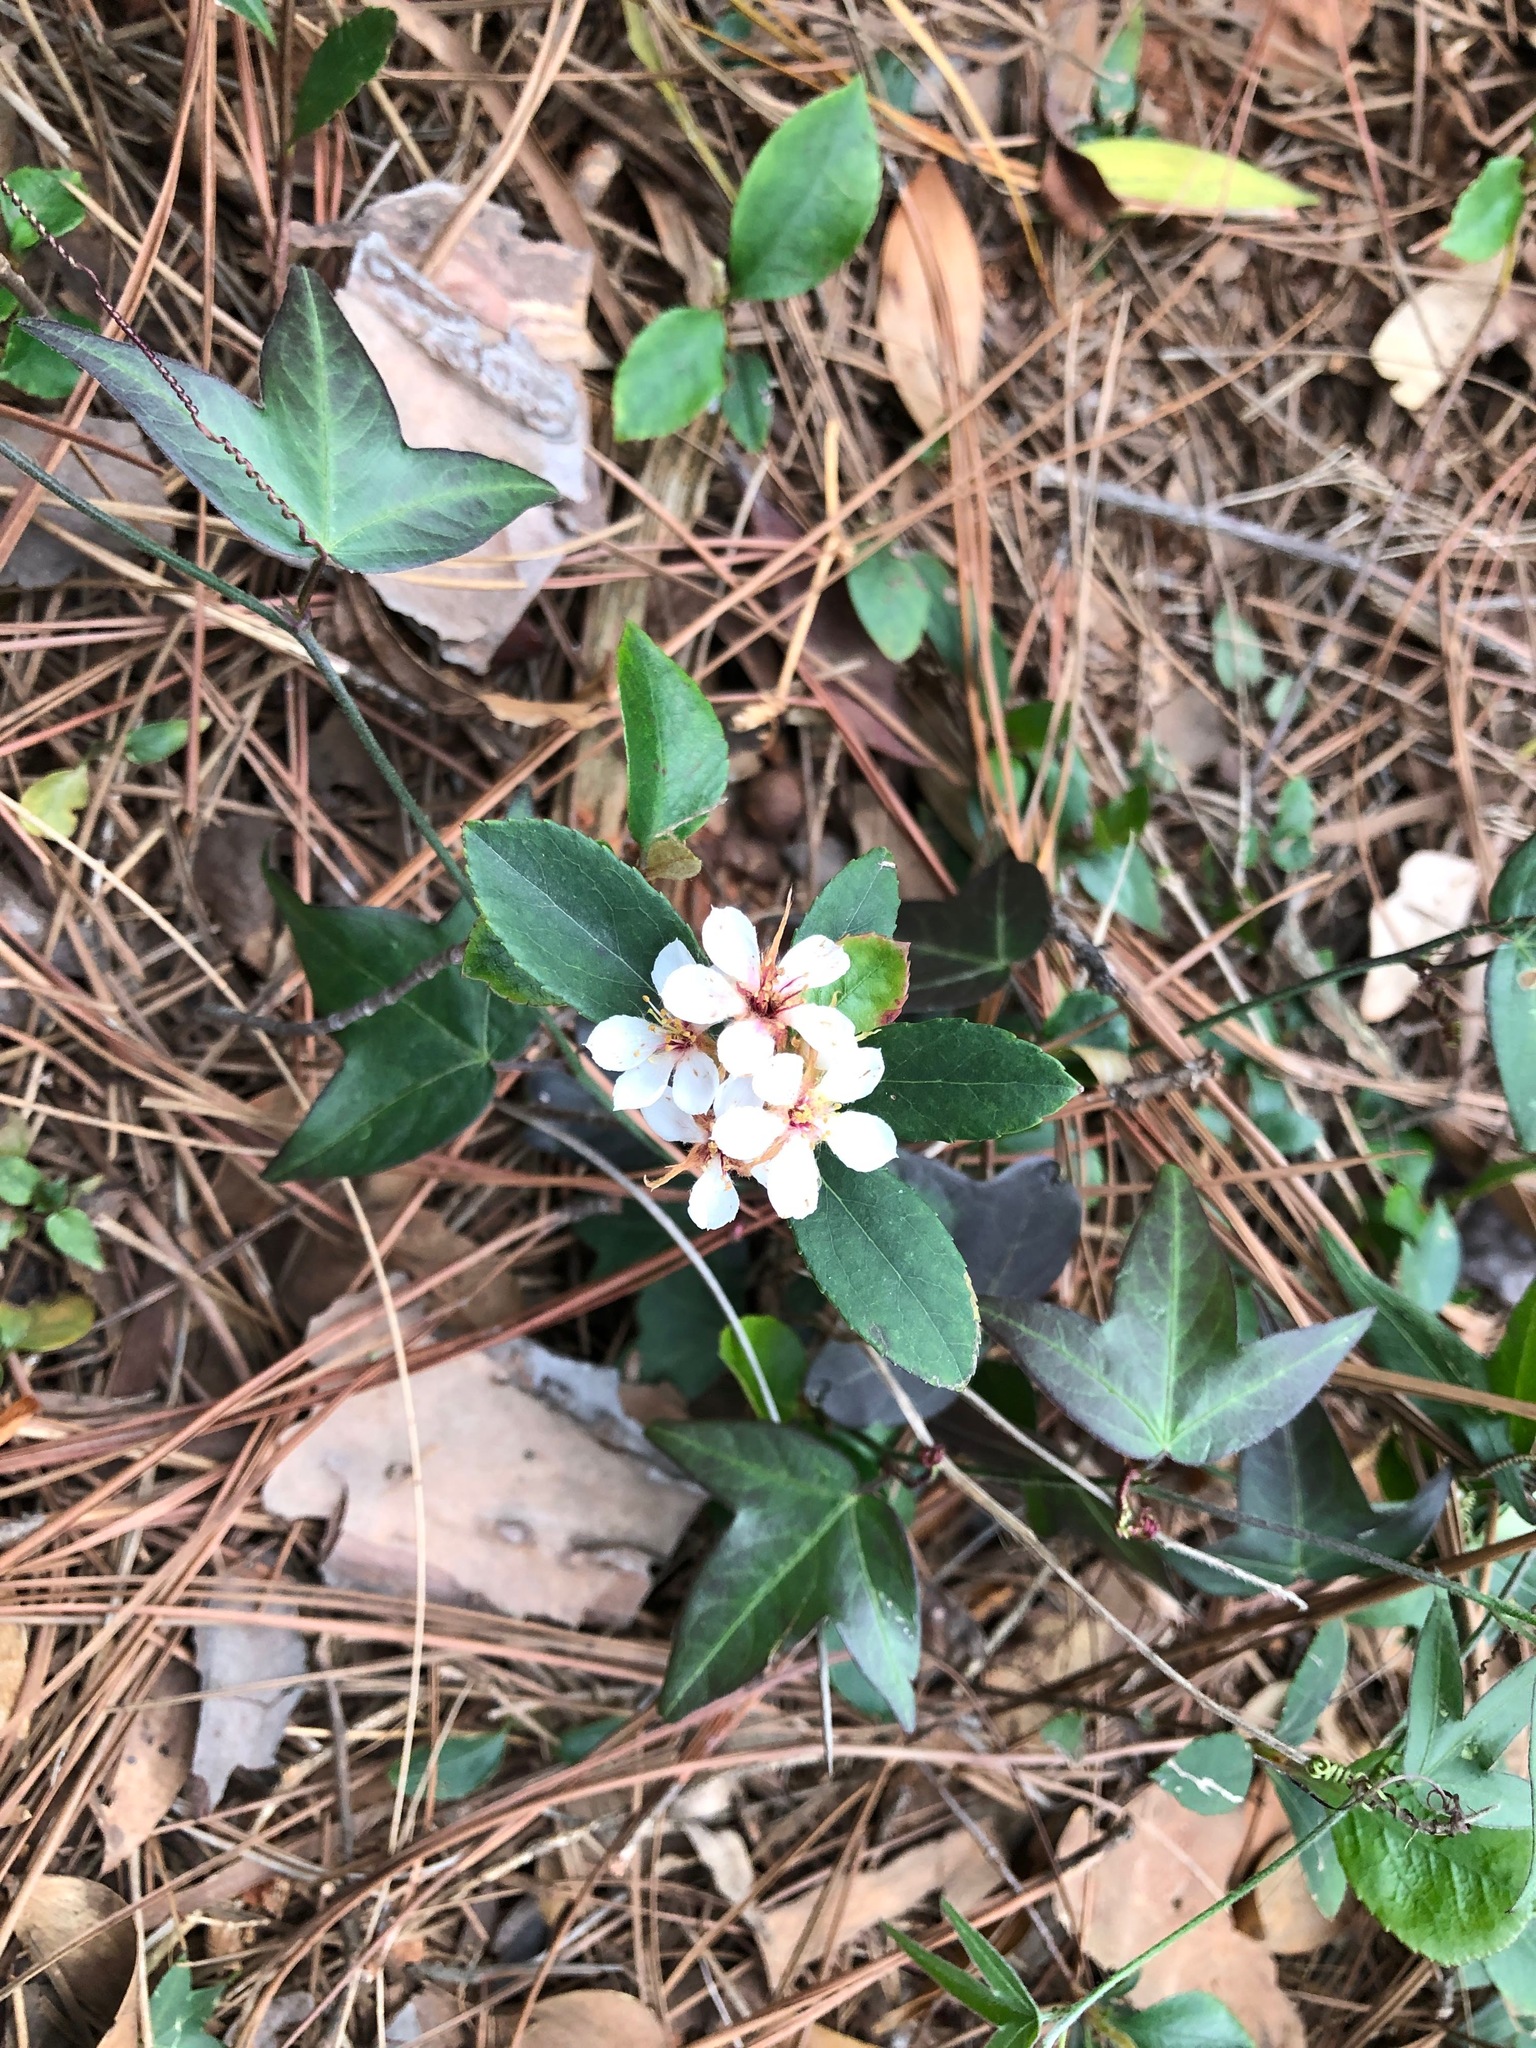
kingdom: Plantae
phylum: Tracheophyta
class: Magnoliopsida
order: Rosales
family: Rosaceae
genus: Rhaphiolepis
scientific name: Rhaphiolepis indica
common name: India-hawthorn
